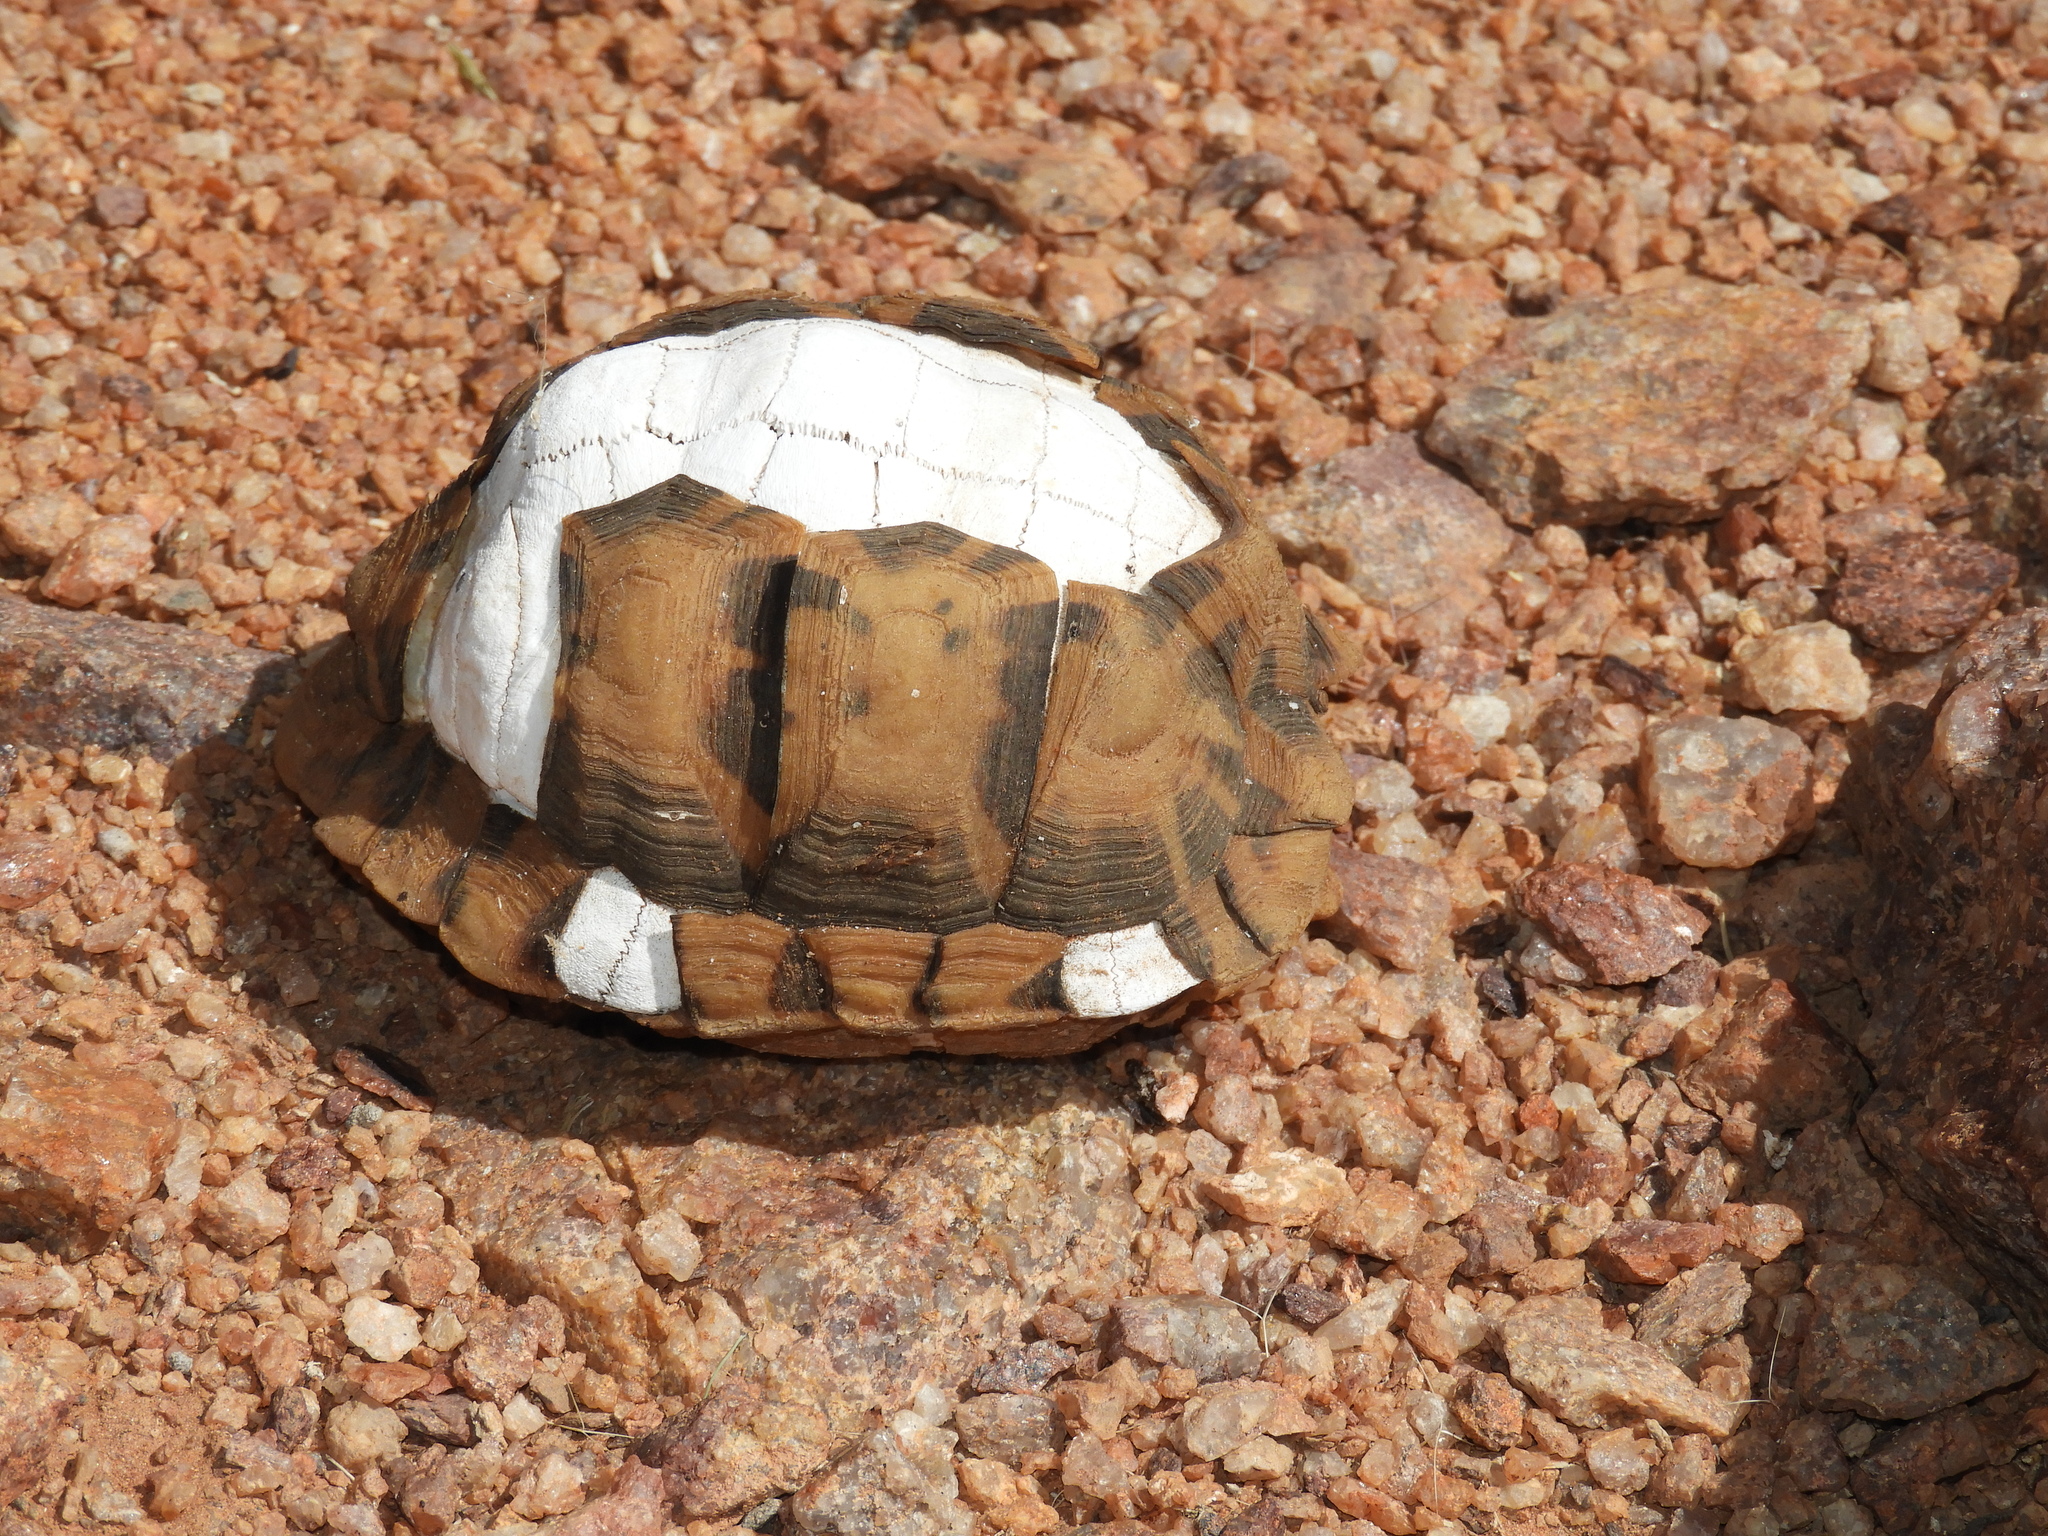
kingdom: Animalia
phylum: Chordata
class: Testudines
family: Testudinidae
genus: Psammobates
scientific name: Psammobates tentorius
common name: Tent tortoise
